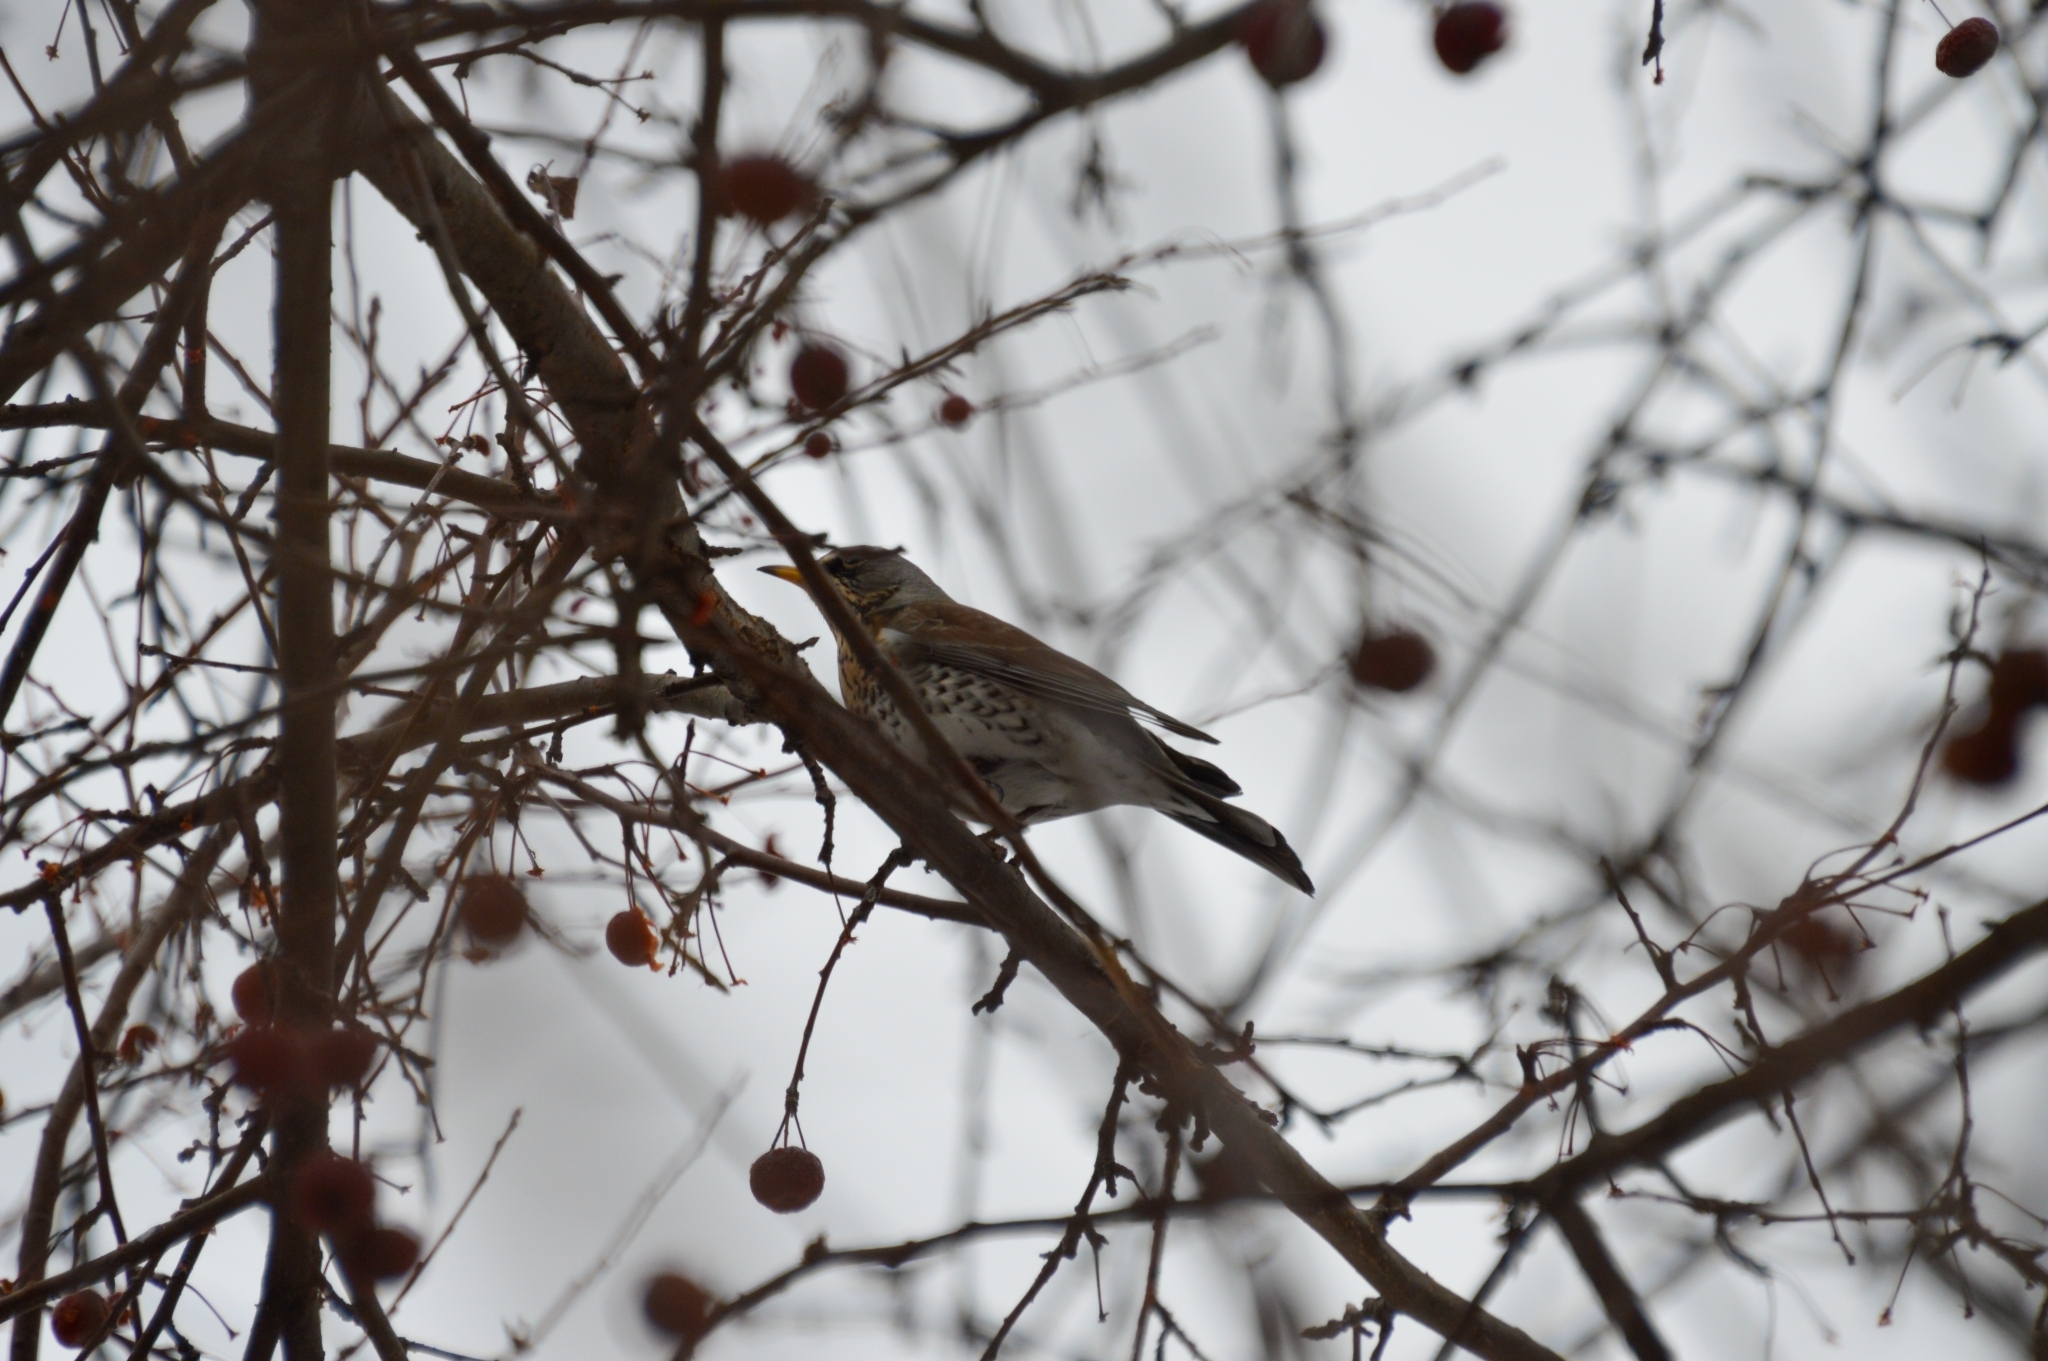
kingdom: Animalia
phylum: Chordata
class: Aves
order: Passeriformes
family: Turdidae
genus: Turdus
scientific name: Turdus pilaris
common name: Fieldfare
